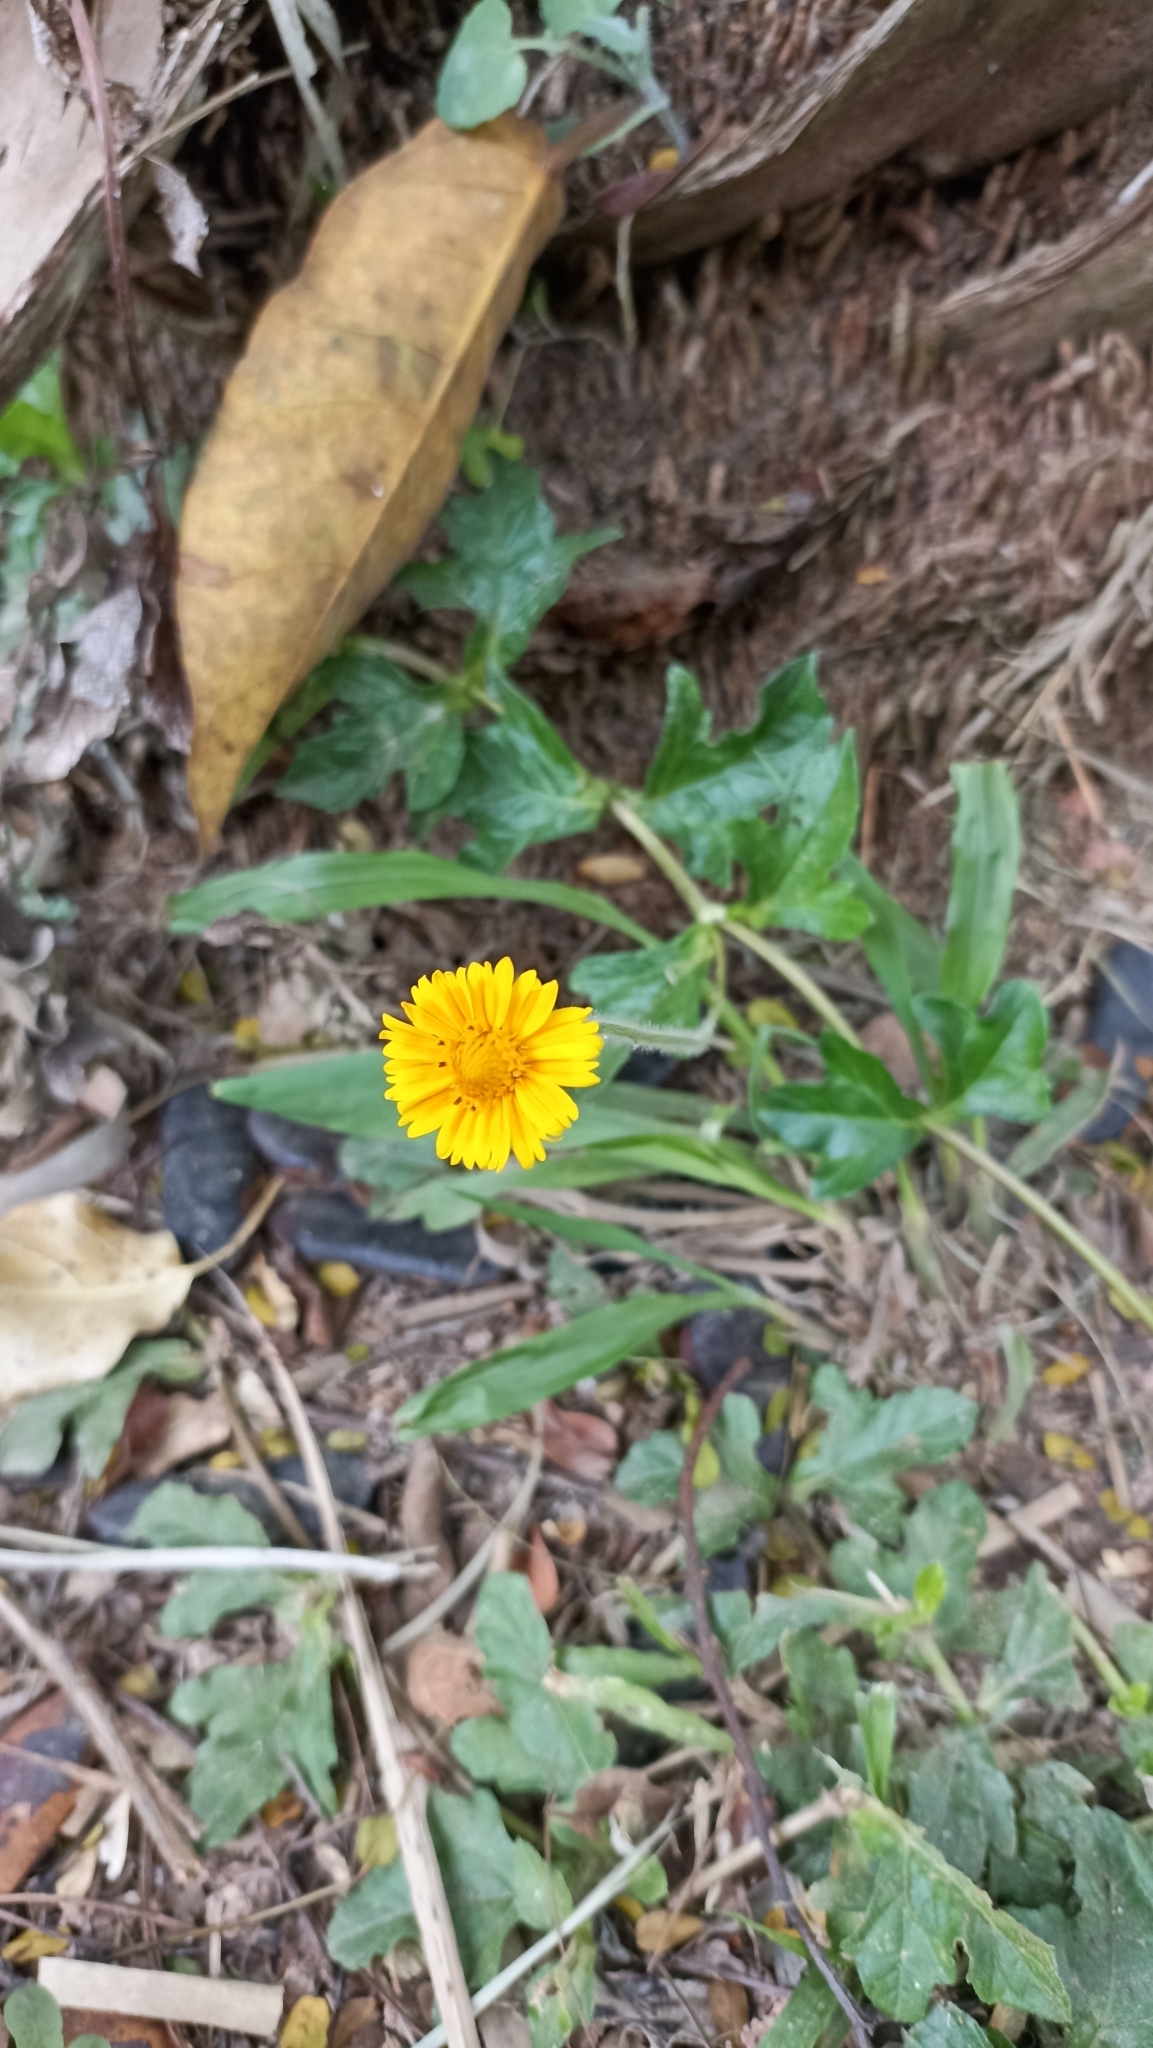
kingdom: Plantae
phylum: Tracheophyta
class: Magnoliopsida
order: Asterales
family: Asteraceae
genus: Sphagneticola
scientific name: Sphagneticola trilobata
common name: Bay biscayne creeping-oxeye
